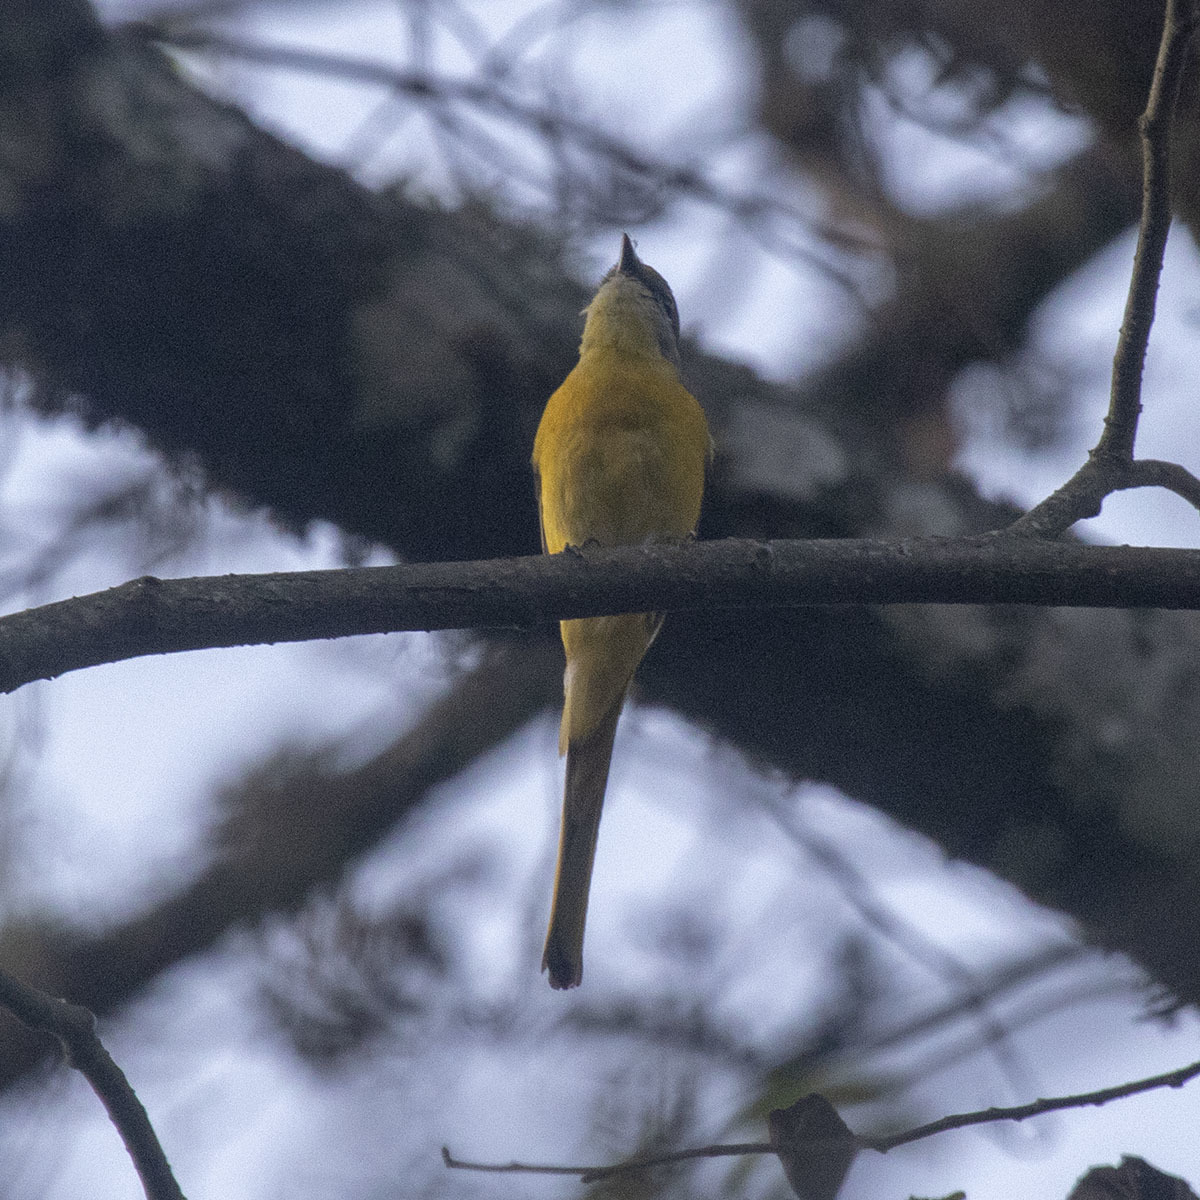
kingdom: Animalia
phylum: Chordata
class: Aves
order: Passeriformes
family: Campephagidae
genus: Pericrocotus
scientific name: Pericrocotus ethologus
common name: Long-tailed minivet
